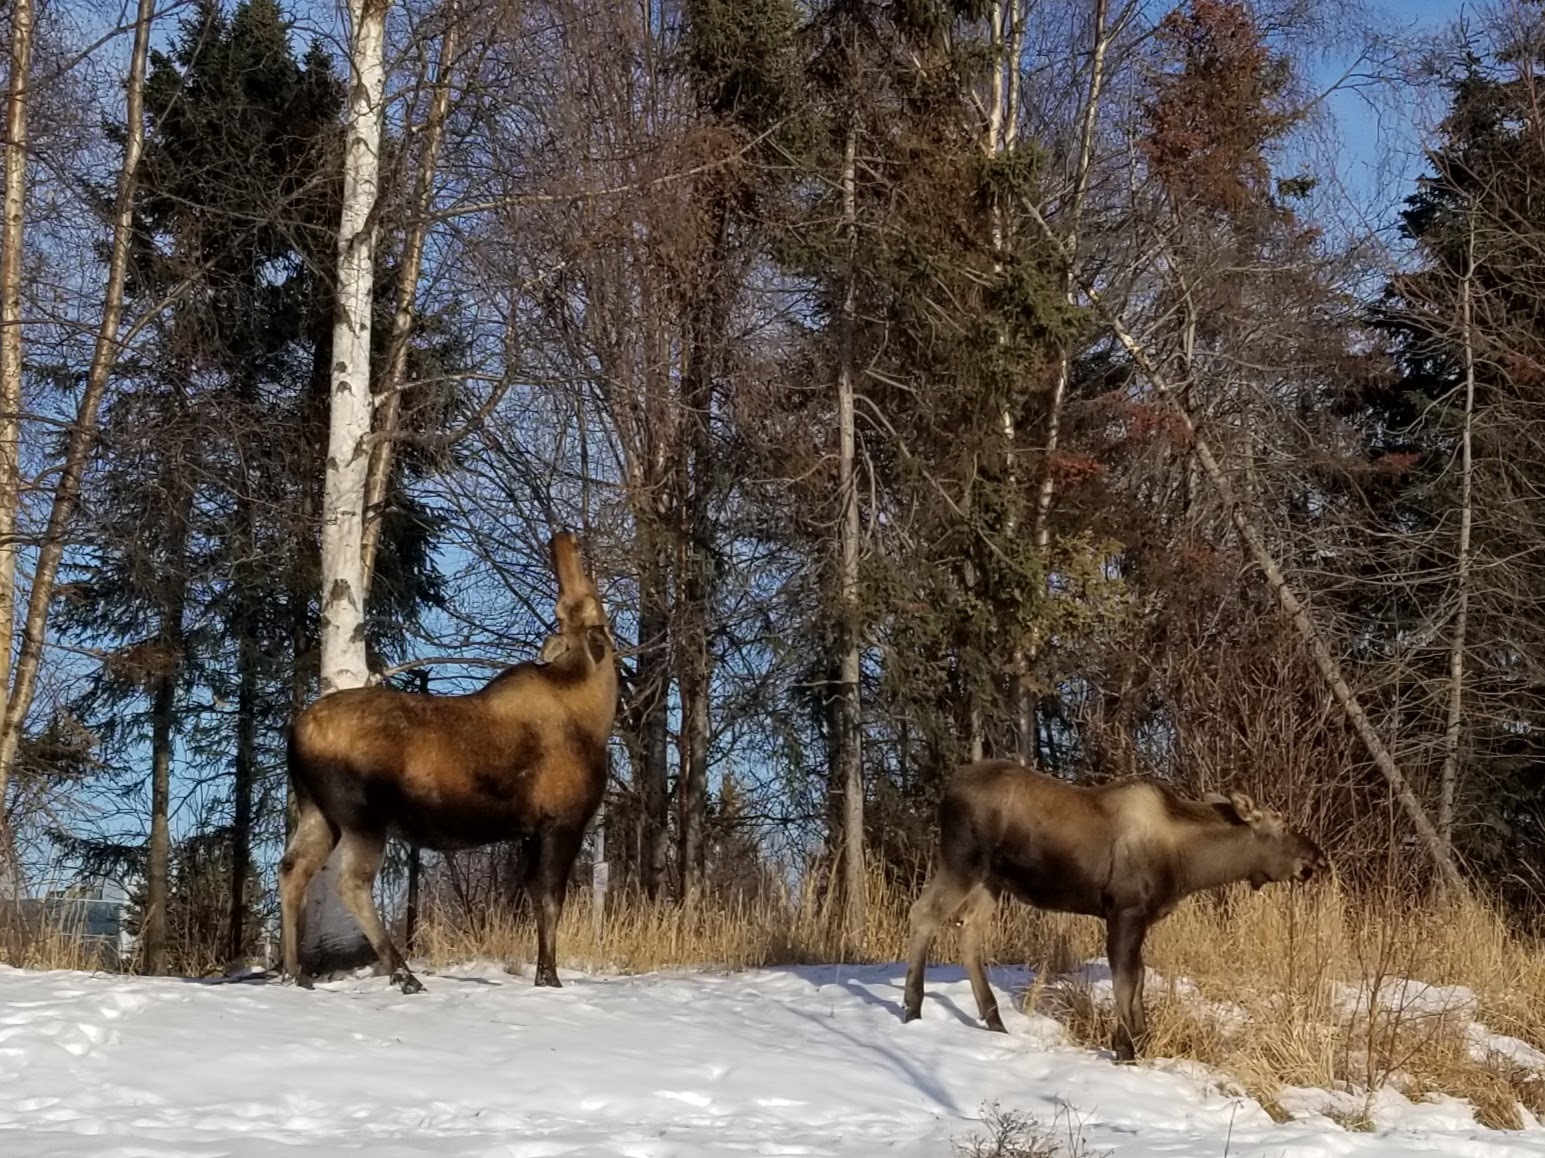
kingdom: Animalia
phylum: Chordata
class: Mammalia
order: Artiodactyla
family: Cervidae
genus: Alces
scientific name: Alces alces
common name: Moose
